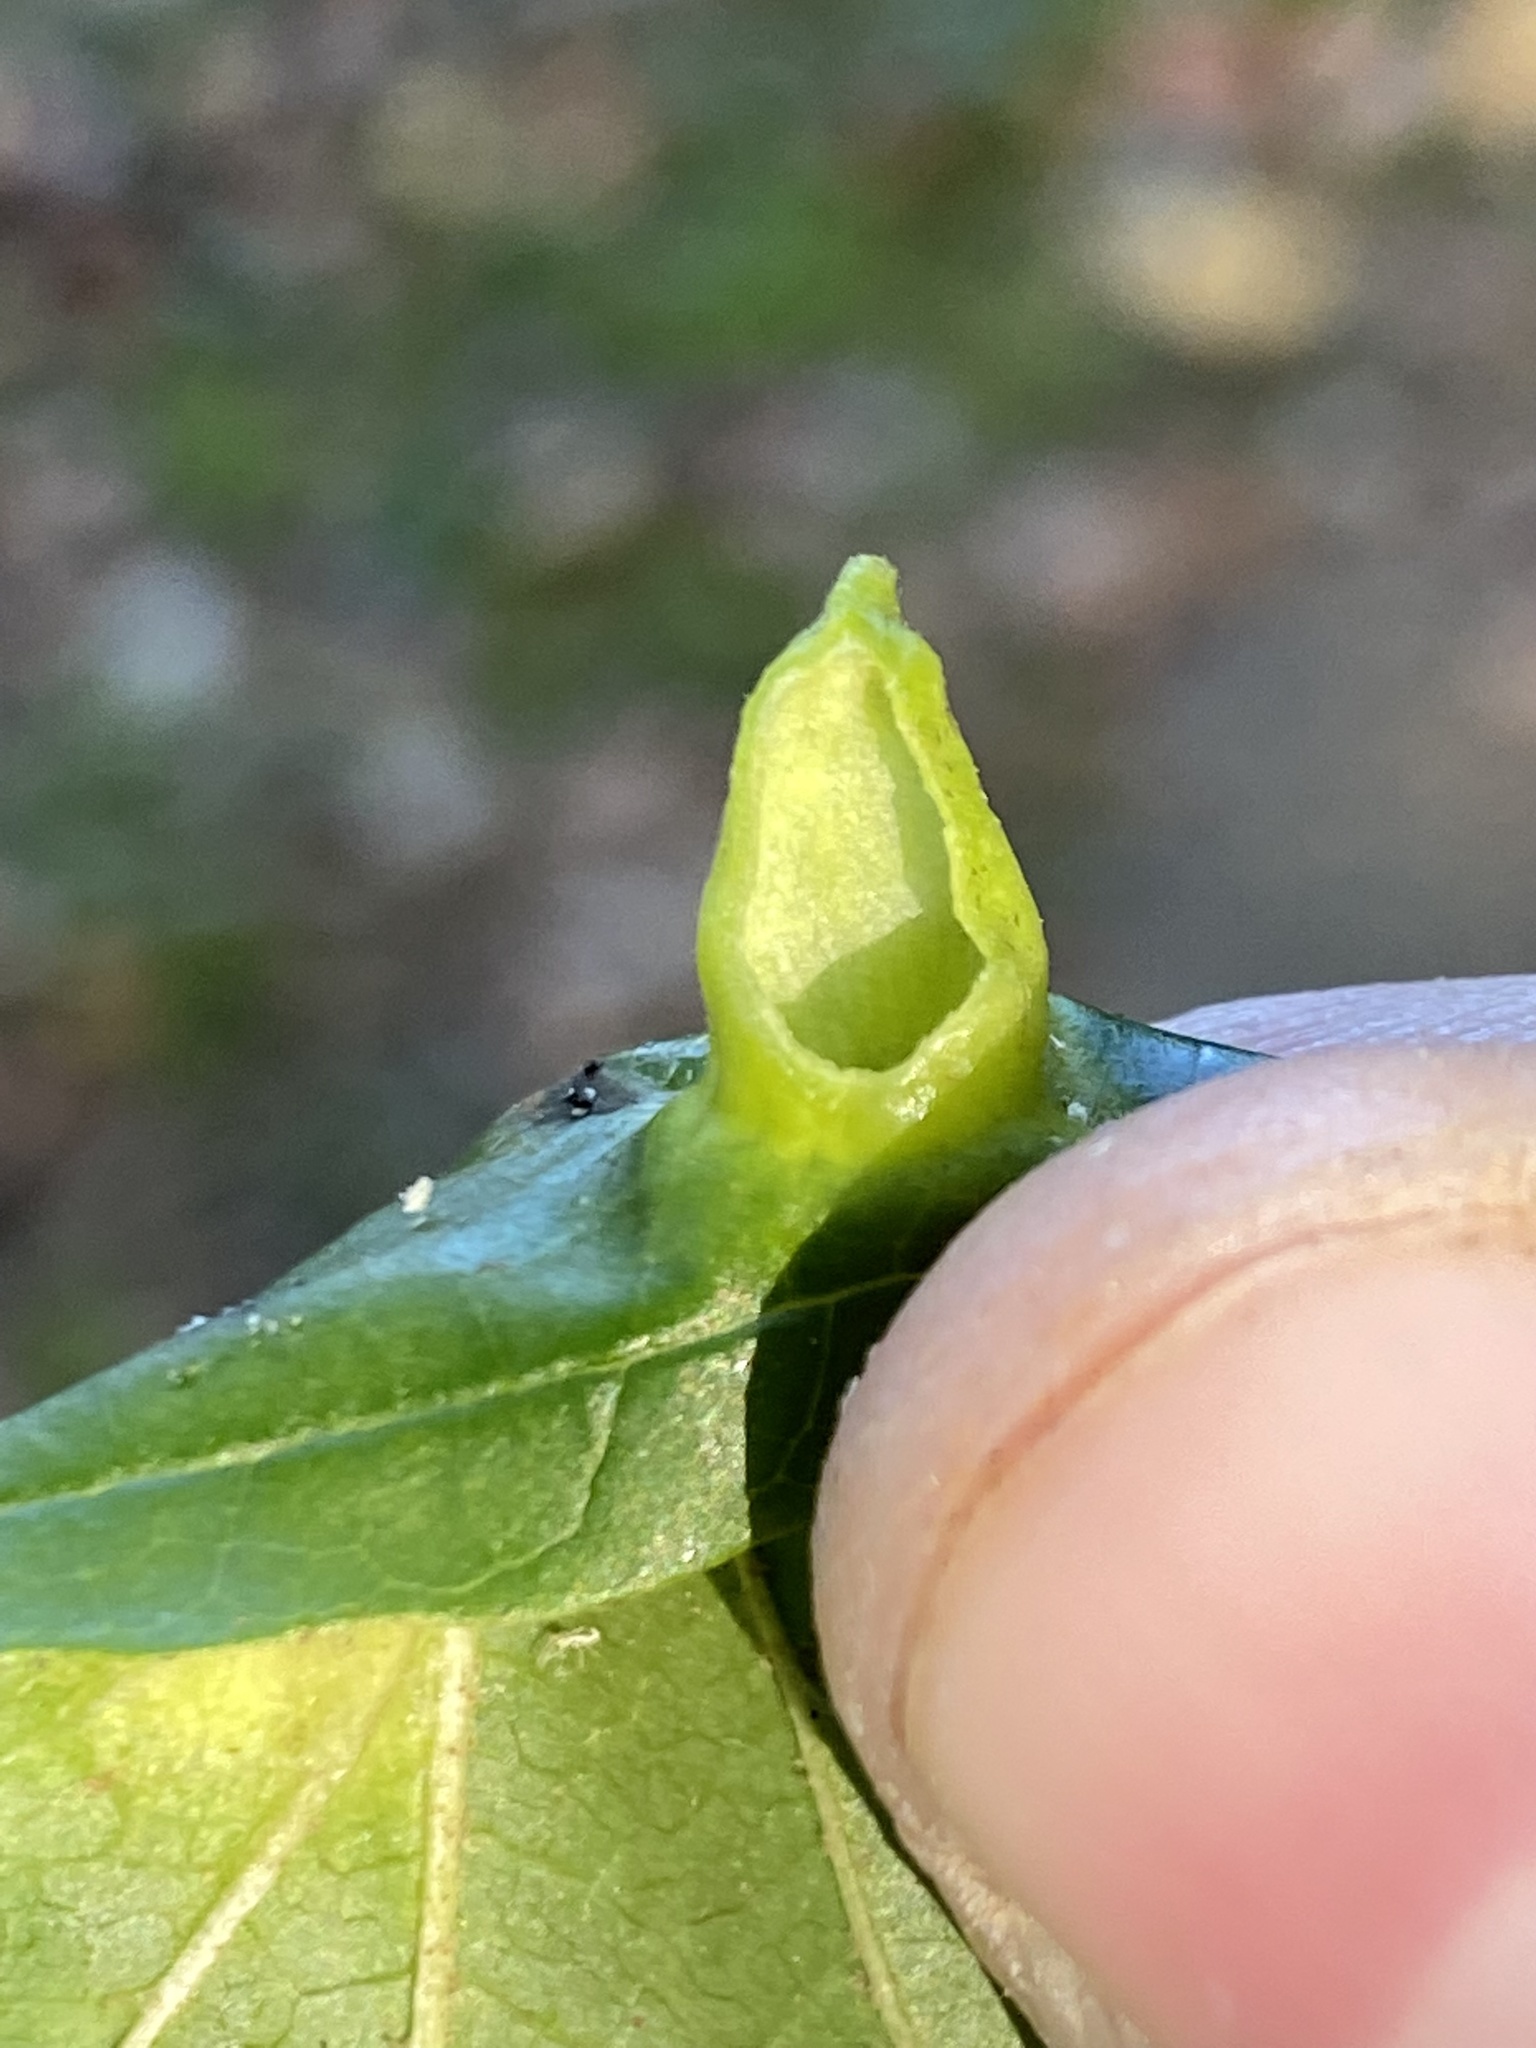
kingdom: Animalia
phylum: Arthropoda
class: Insecta
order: Hemiptera
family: Aphididae
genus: Hormaphis
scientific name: Hormaphis hamamelidis
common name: Witch-hazel cone gall aphid
